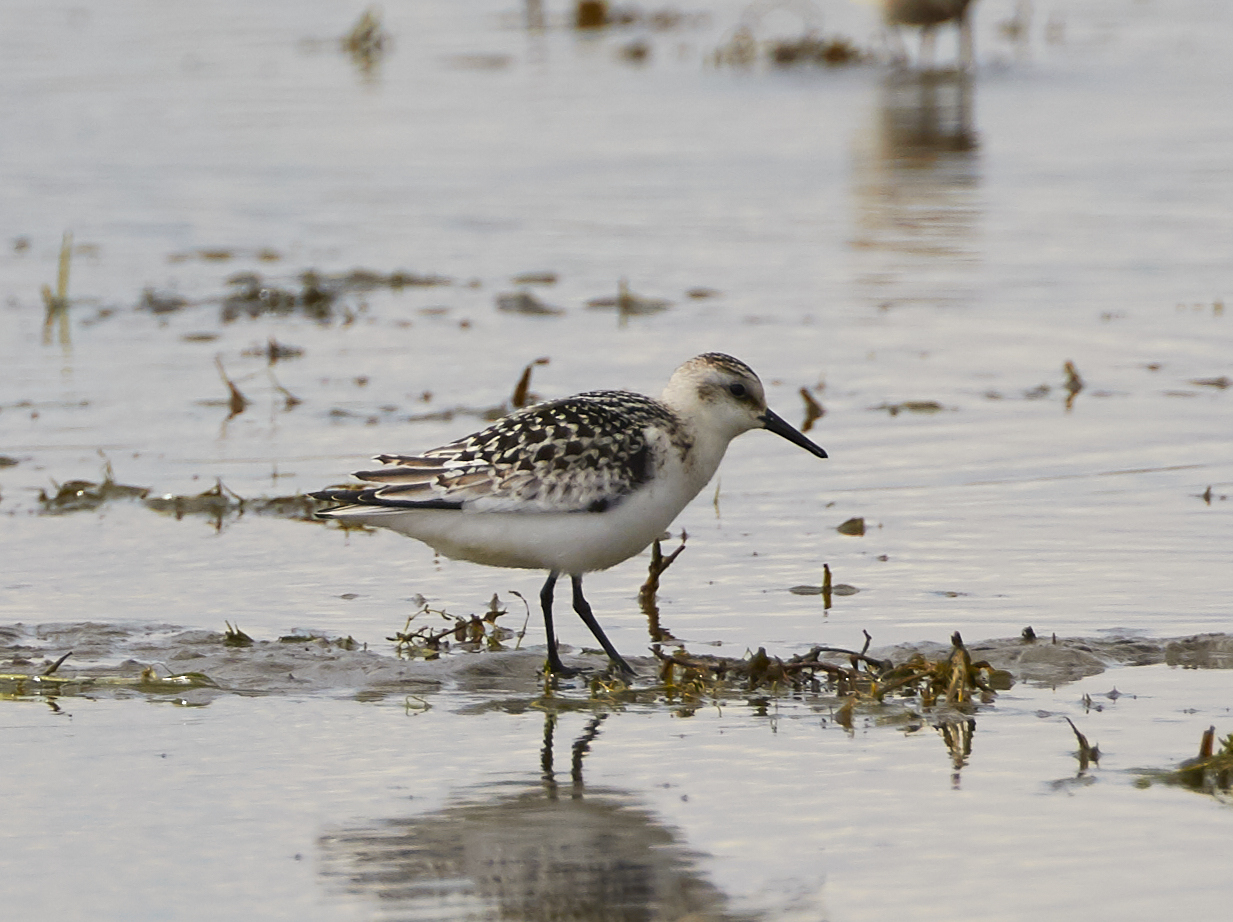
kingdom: Animalia
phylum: Chordata
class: Aves
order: Charadriiformes
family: Scolopacidae
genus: Calidris
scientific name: Calidris alba
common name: Sanderling
